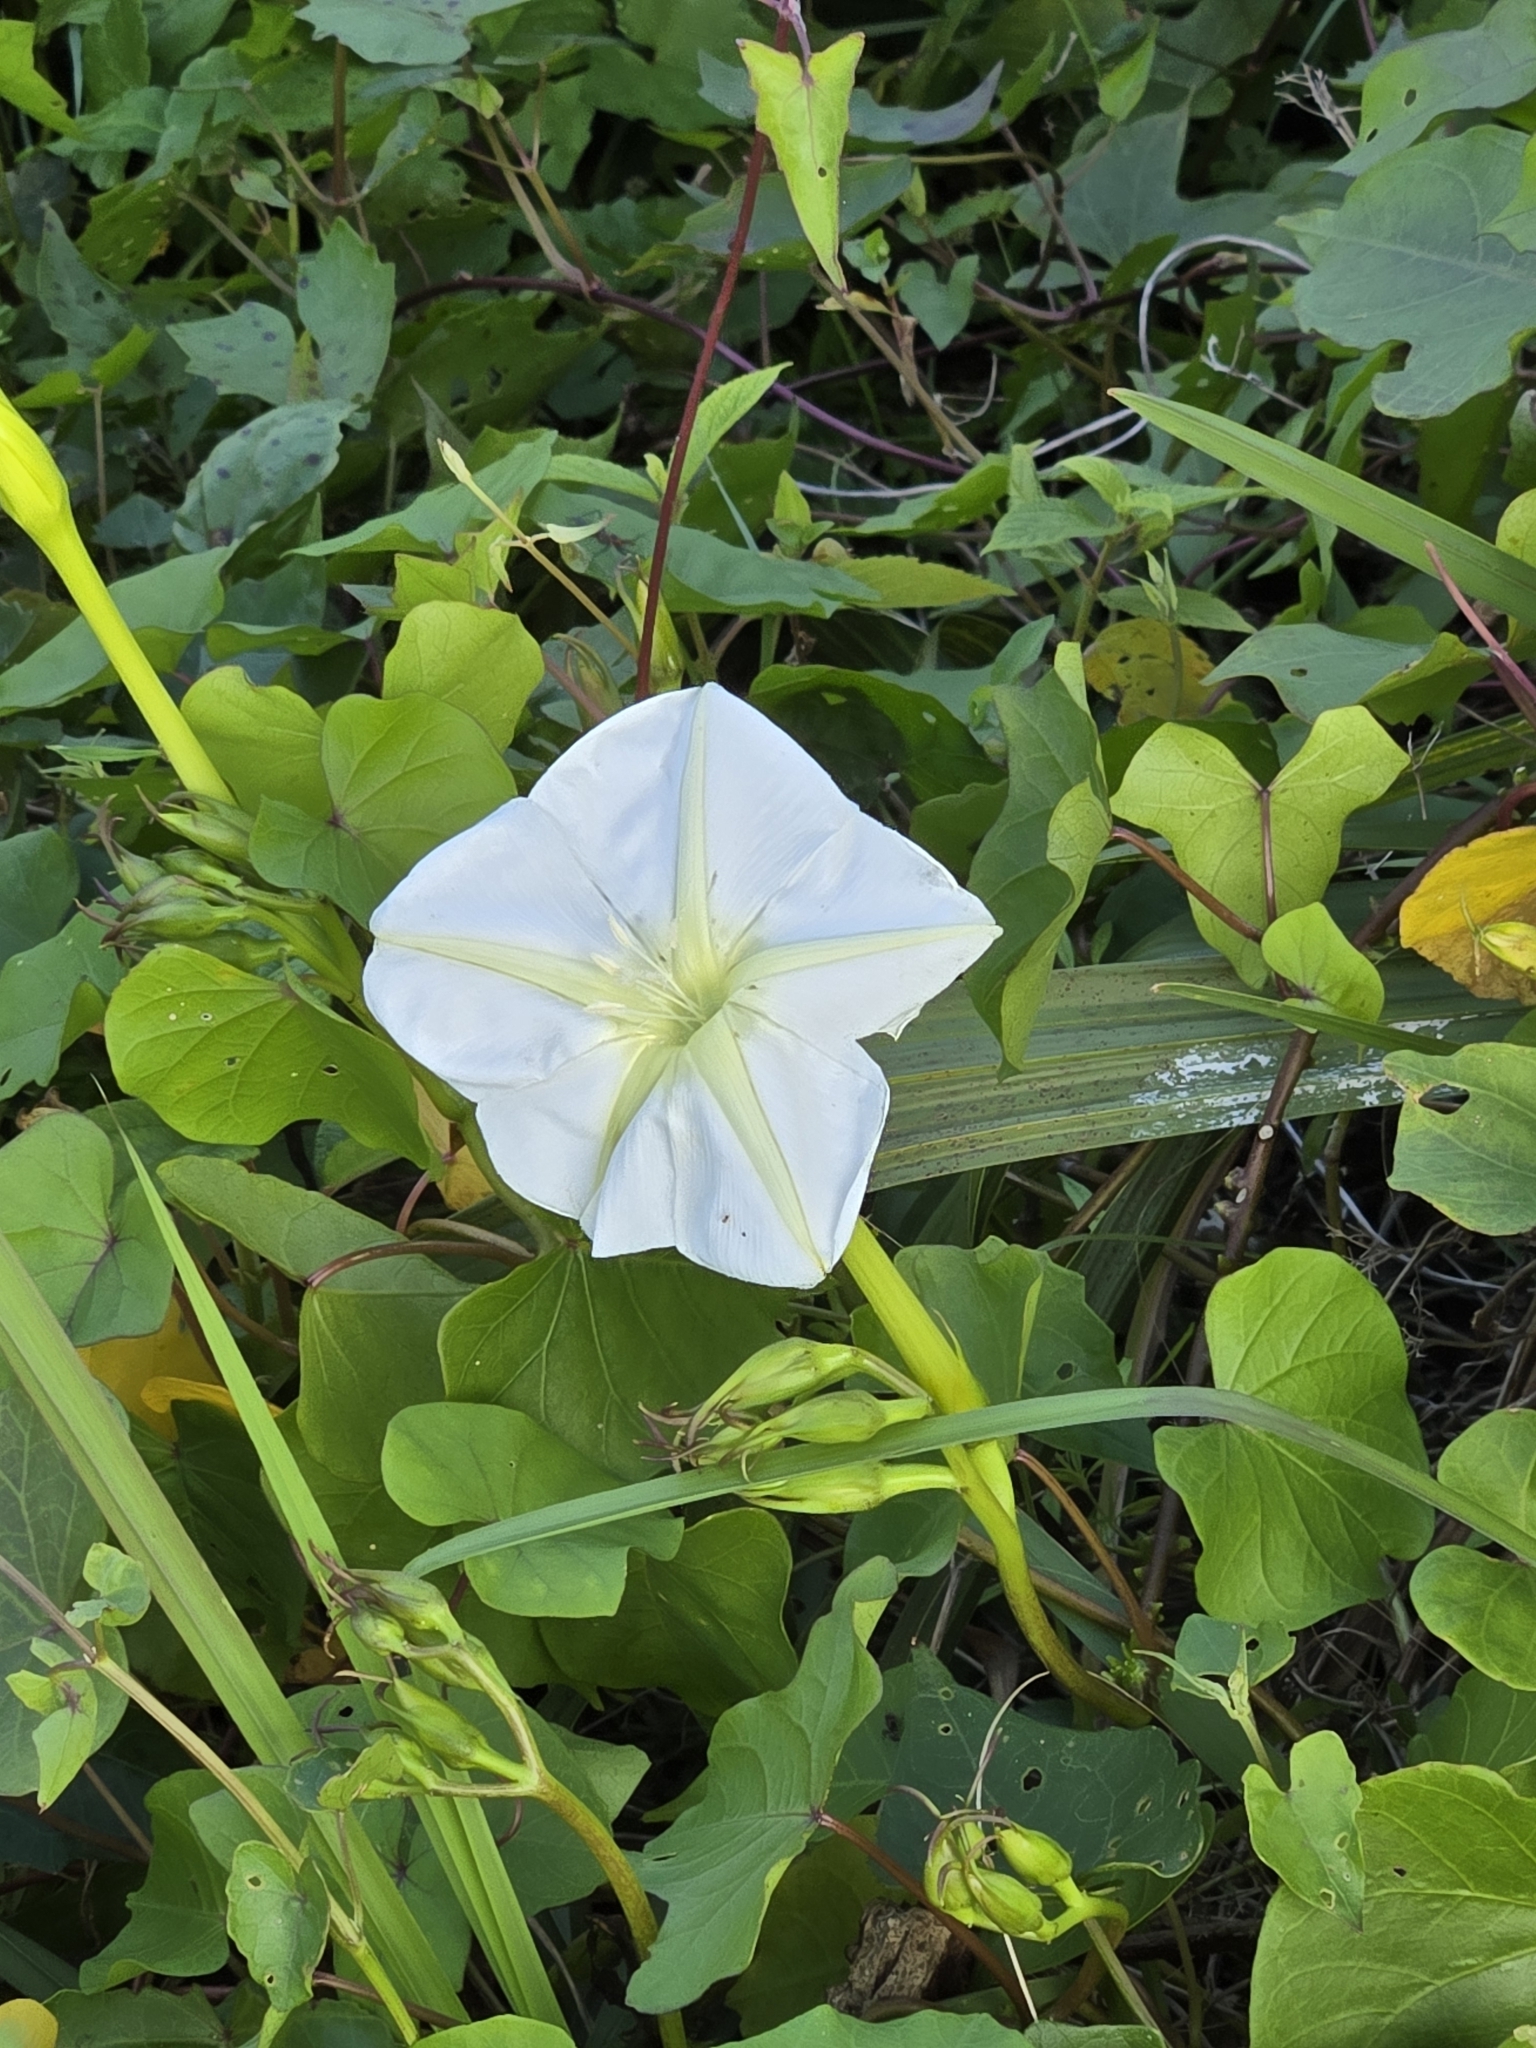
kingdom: Plantae
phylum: Tracheophyta
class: Magnoliopsida
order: Solanales
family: Convolvulaceae
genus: Ipomoea
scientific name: Ipomoea alba
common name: Moonflower
